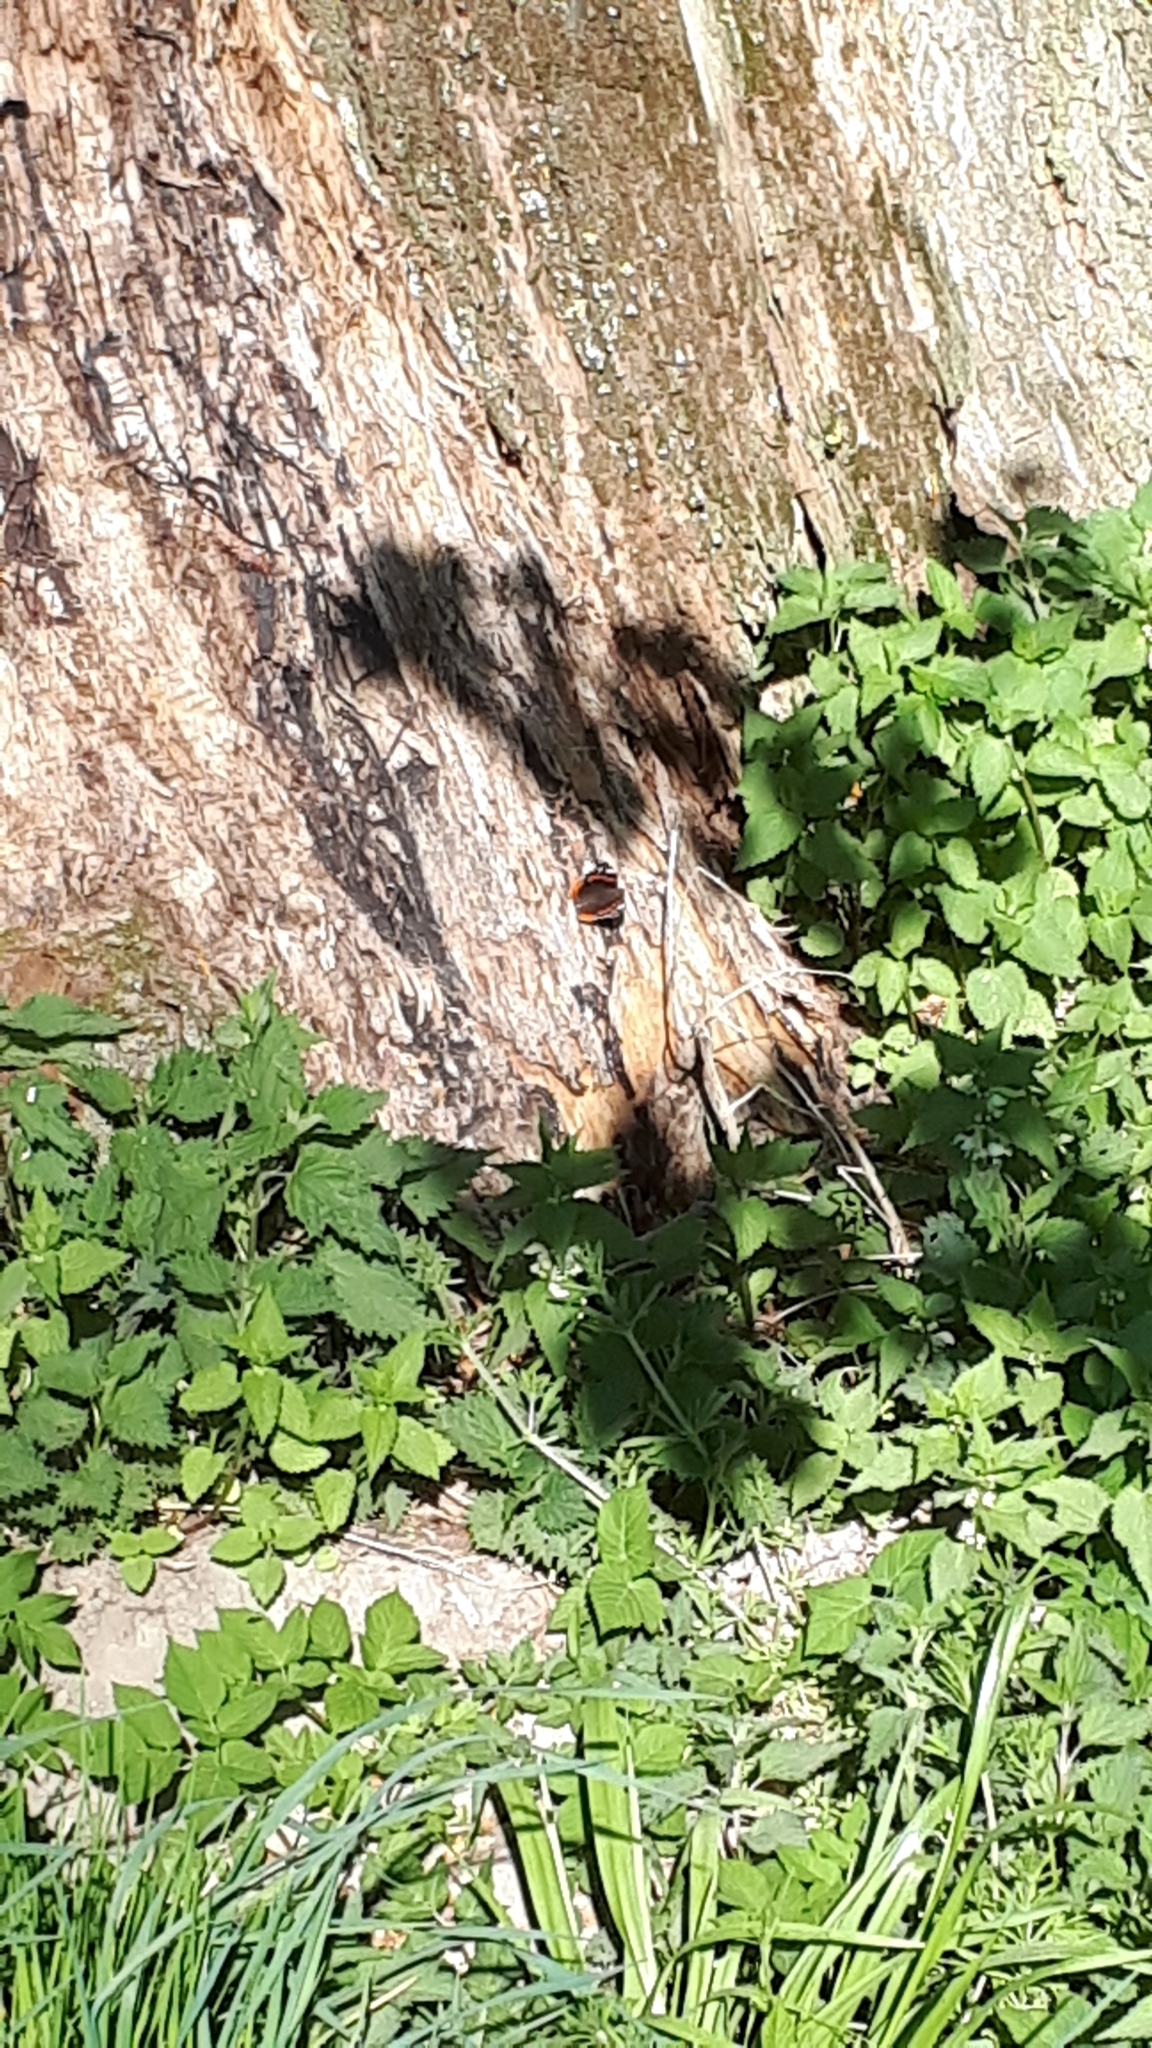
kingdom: Animalia
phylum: Arthropoda
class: Insecta
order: Lepidoptera
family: Nymphalidae
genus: Vanessa
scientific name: Vanessa atalanta
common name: Red admiral
